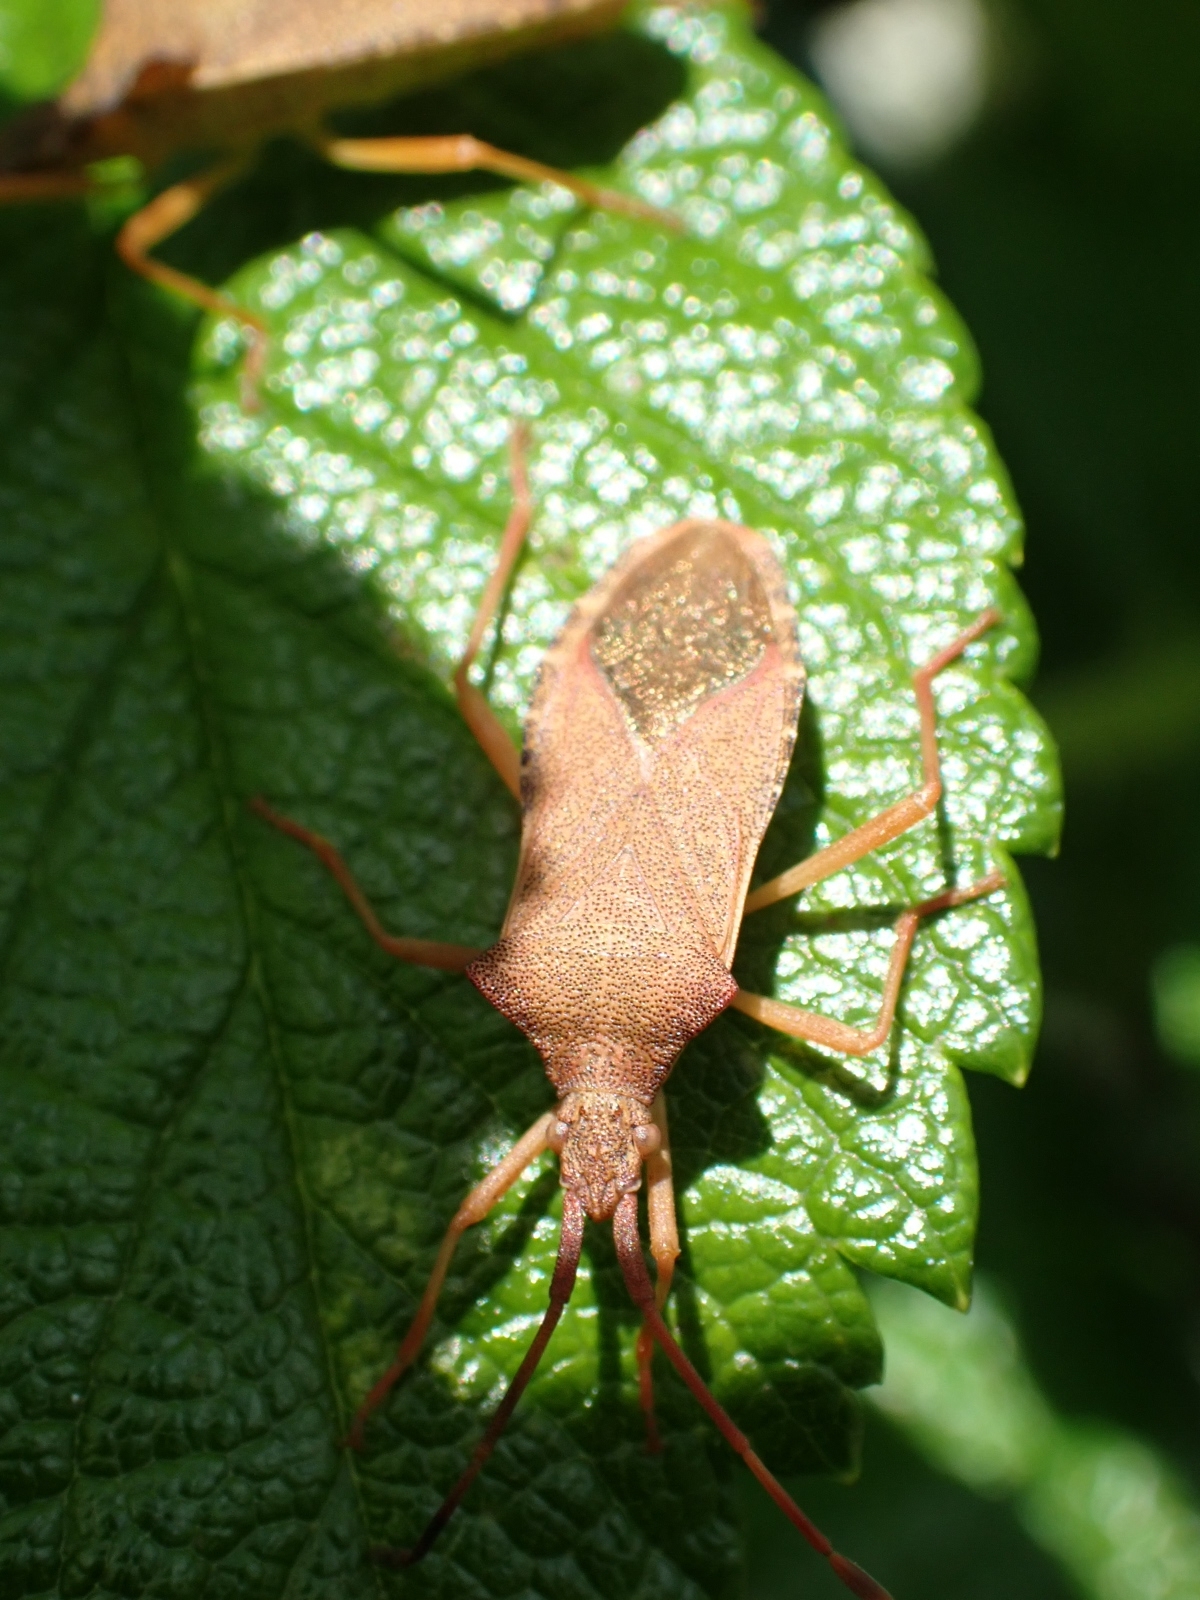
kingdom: Animalia
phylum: Arthropoda
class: Insecta
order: Hemiptera
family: Coreidae
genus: Gonocerus
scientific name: Gonocerus acuteangulatus
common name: Box bug
